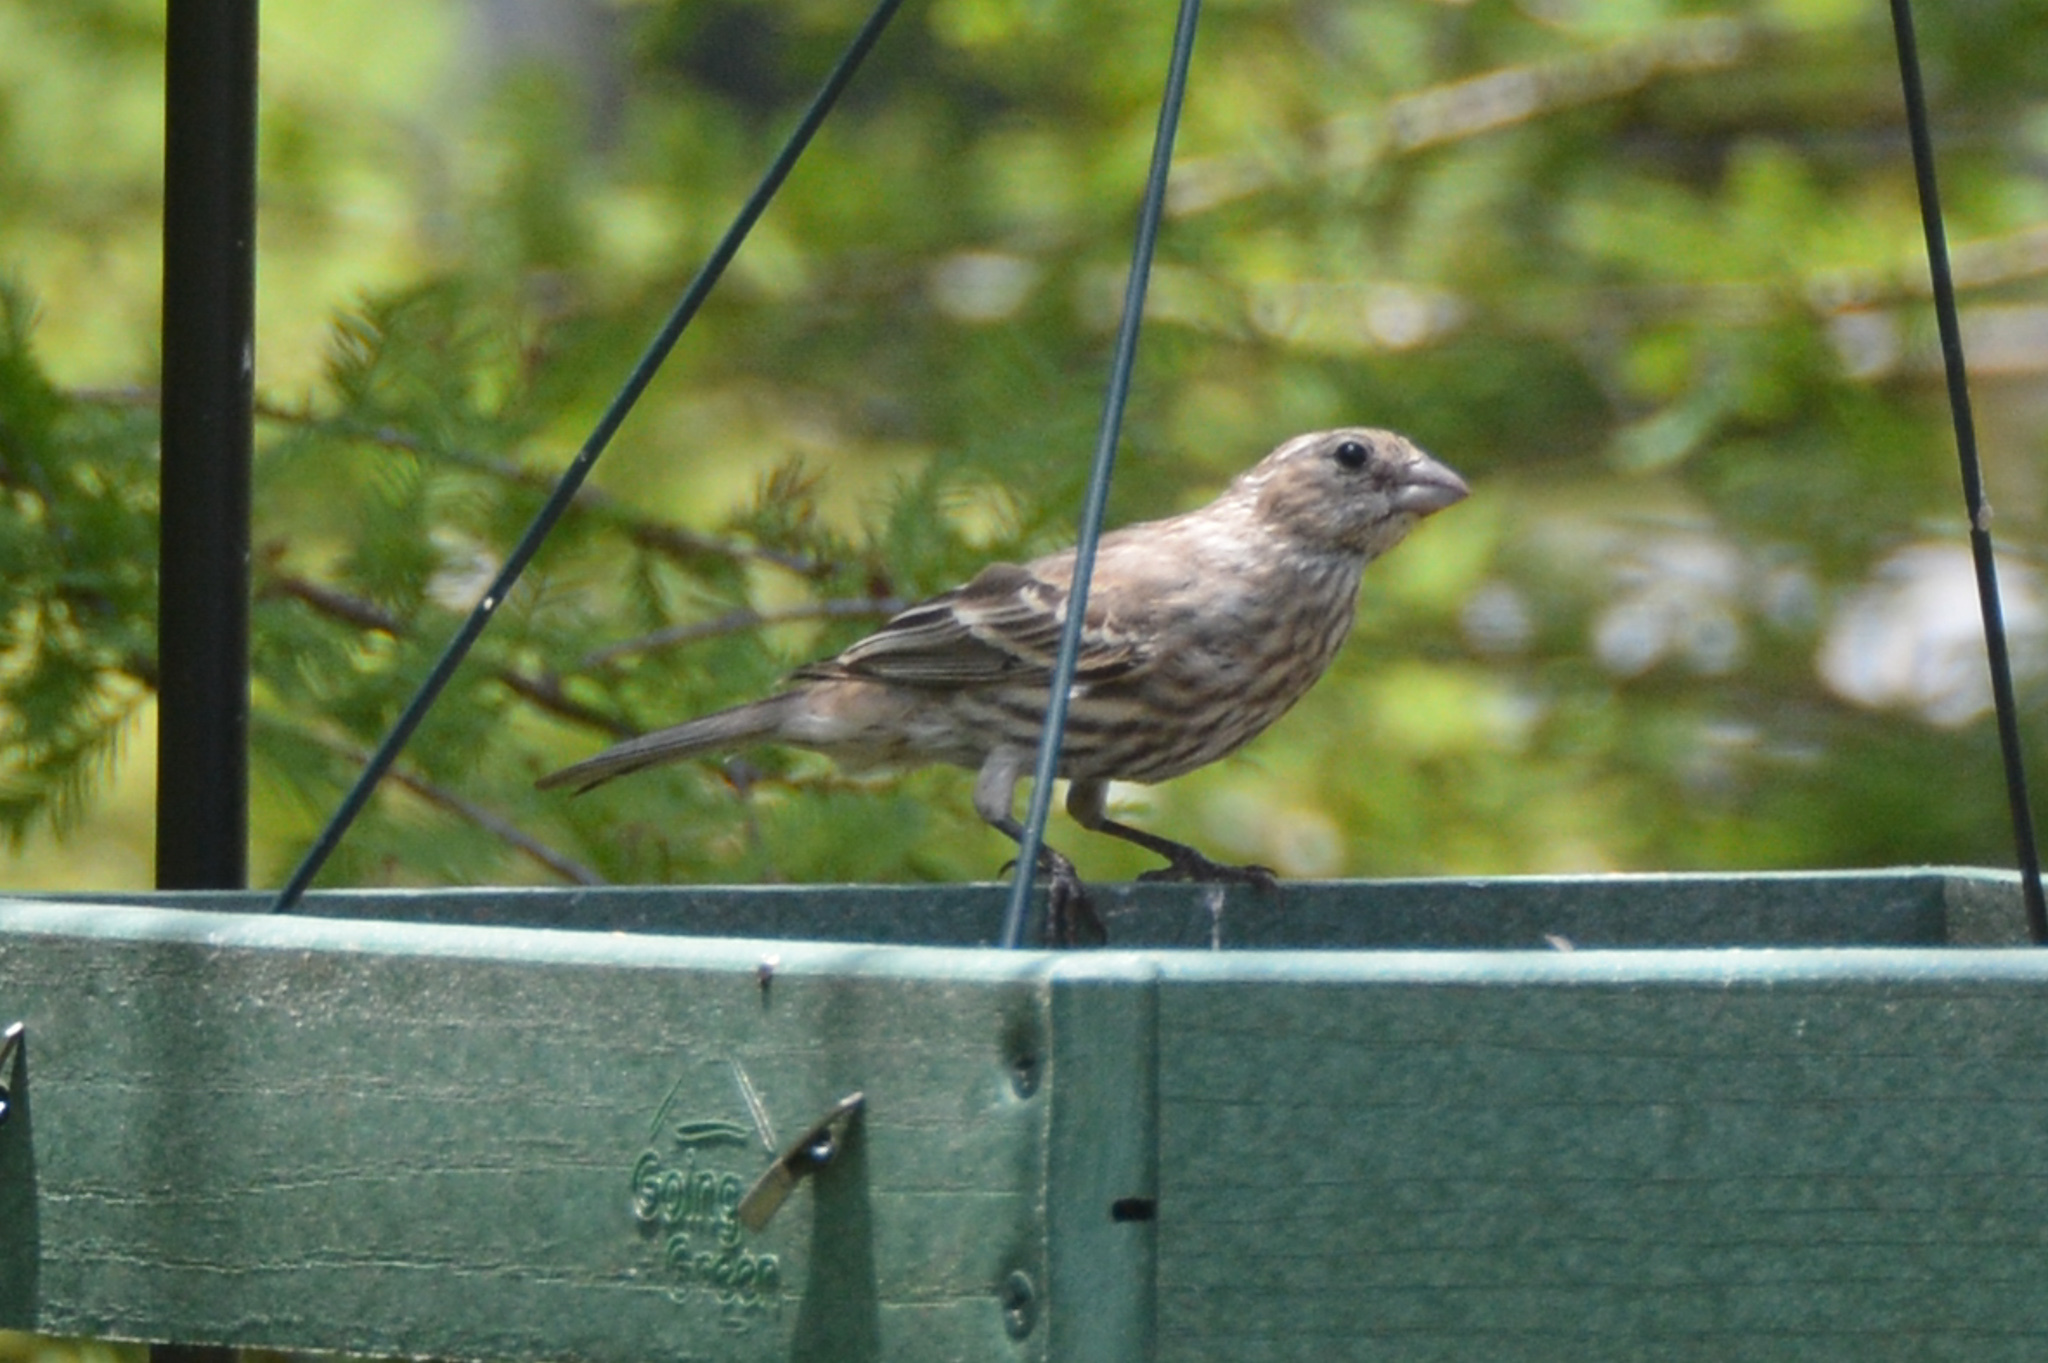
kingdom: Animalia
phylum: Chordata
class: Aves
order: Passeriformes
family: Fringillidae
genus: Haemorhous
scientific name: Haemorhous mexicanus
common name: House finch
